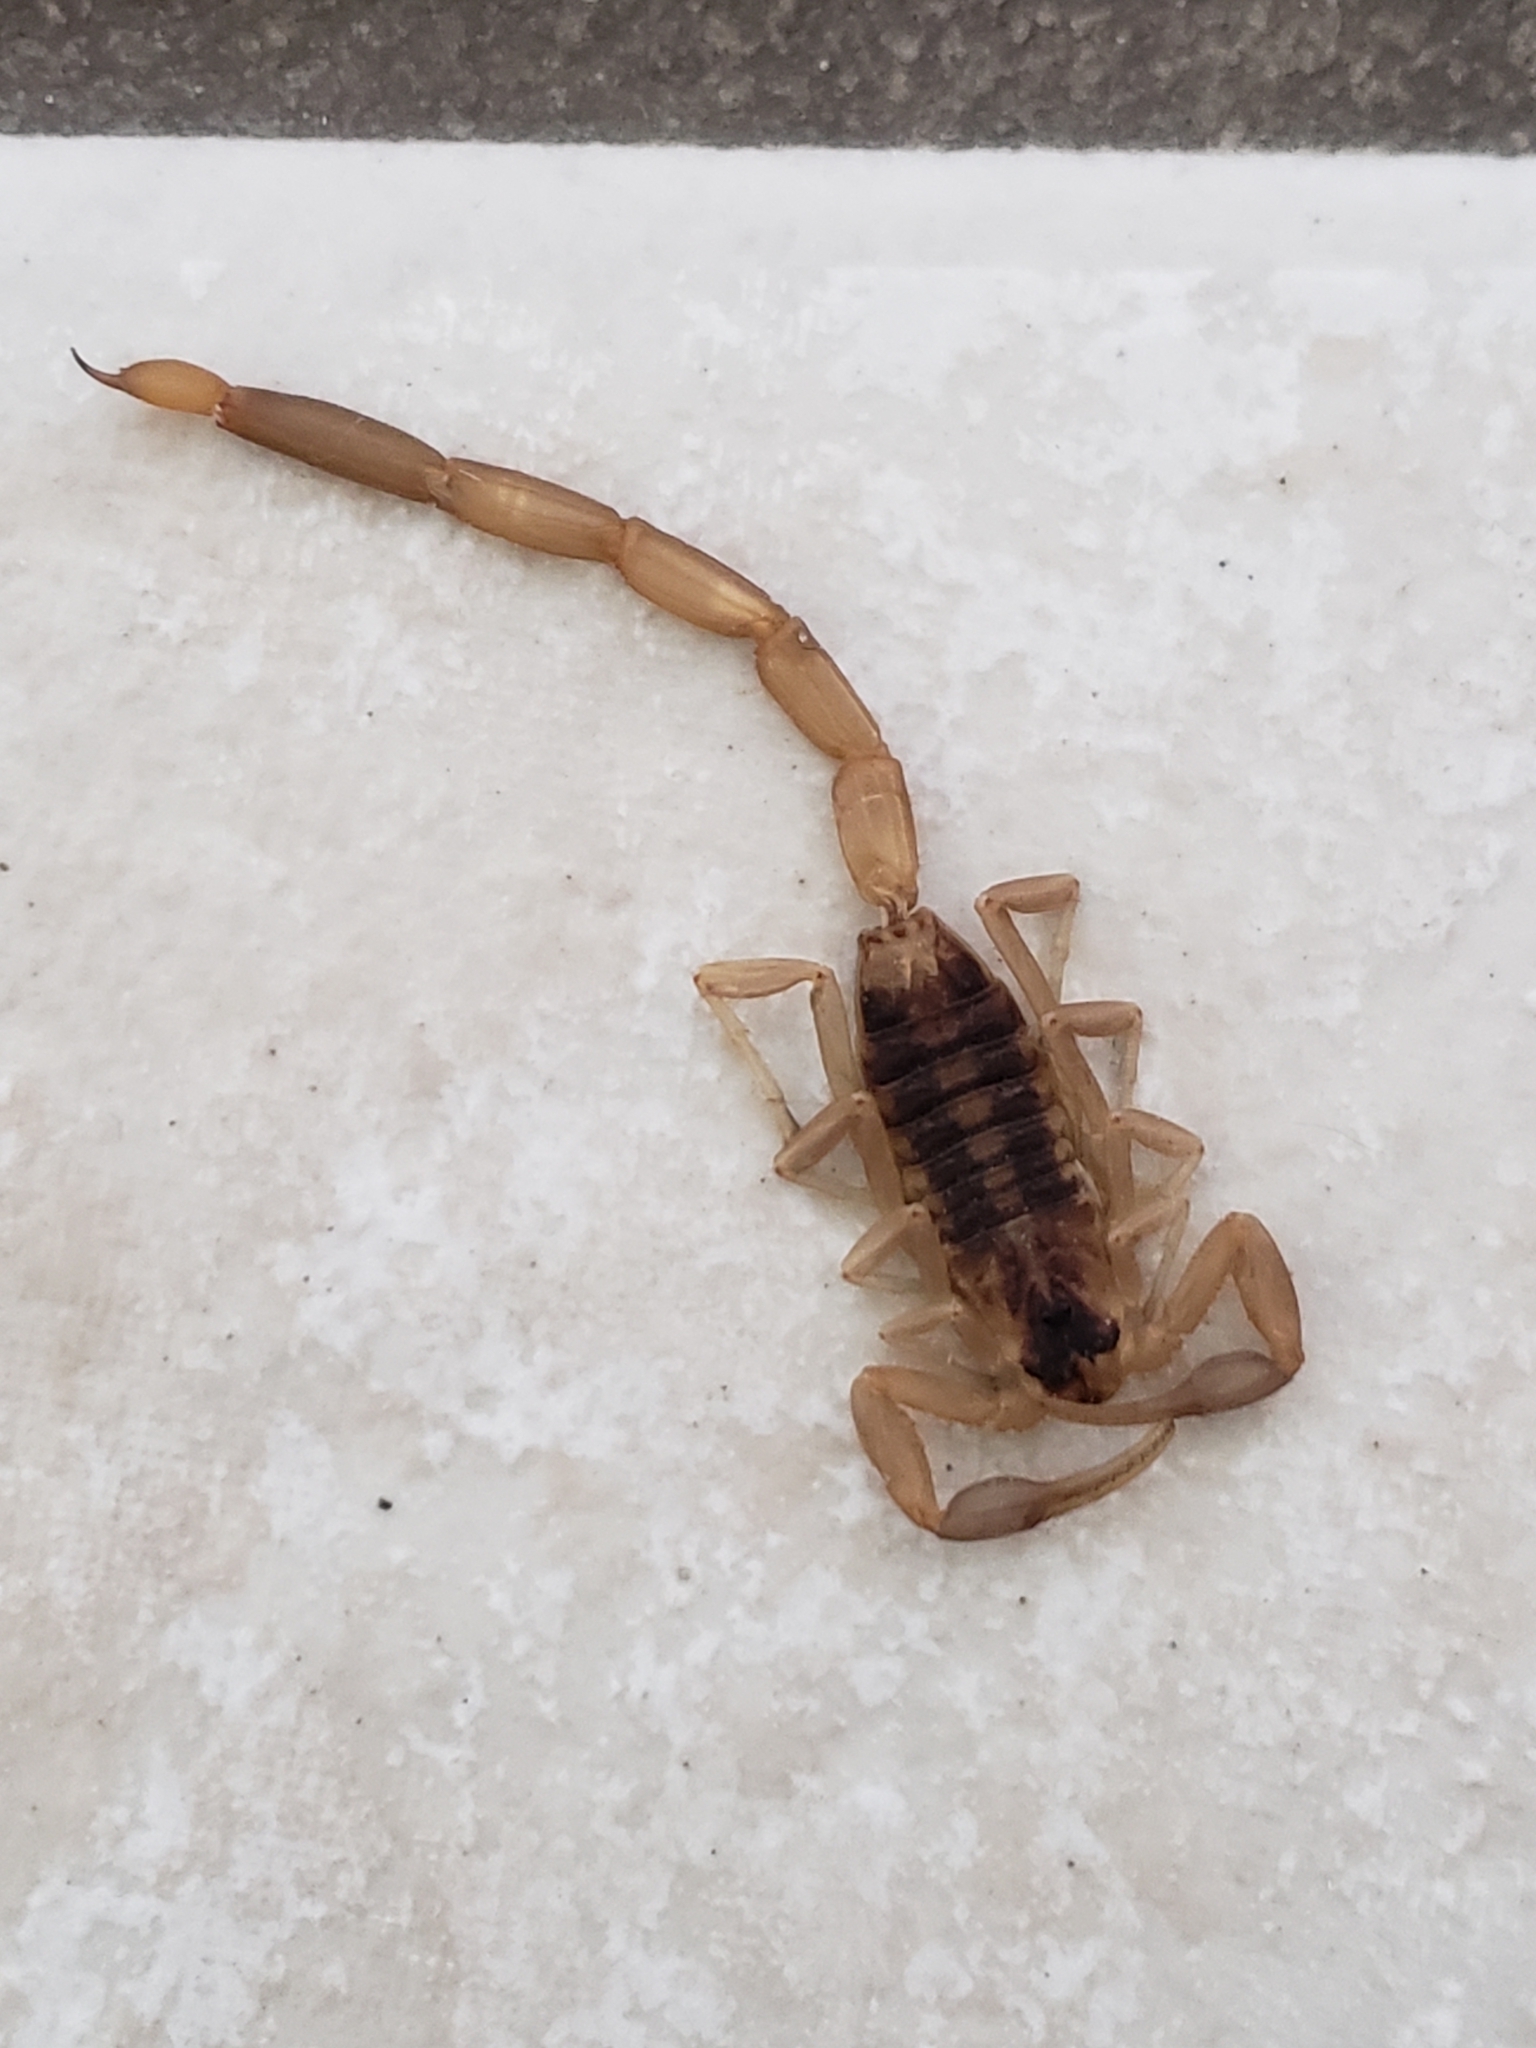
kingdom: Animalia
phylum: Arthropoda
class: Arachnida
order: Scorpiones
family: Buthidae
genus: Centruroides
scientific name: Centruroides vittatus
